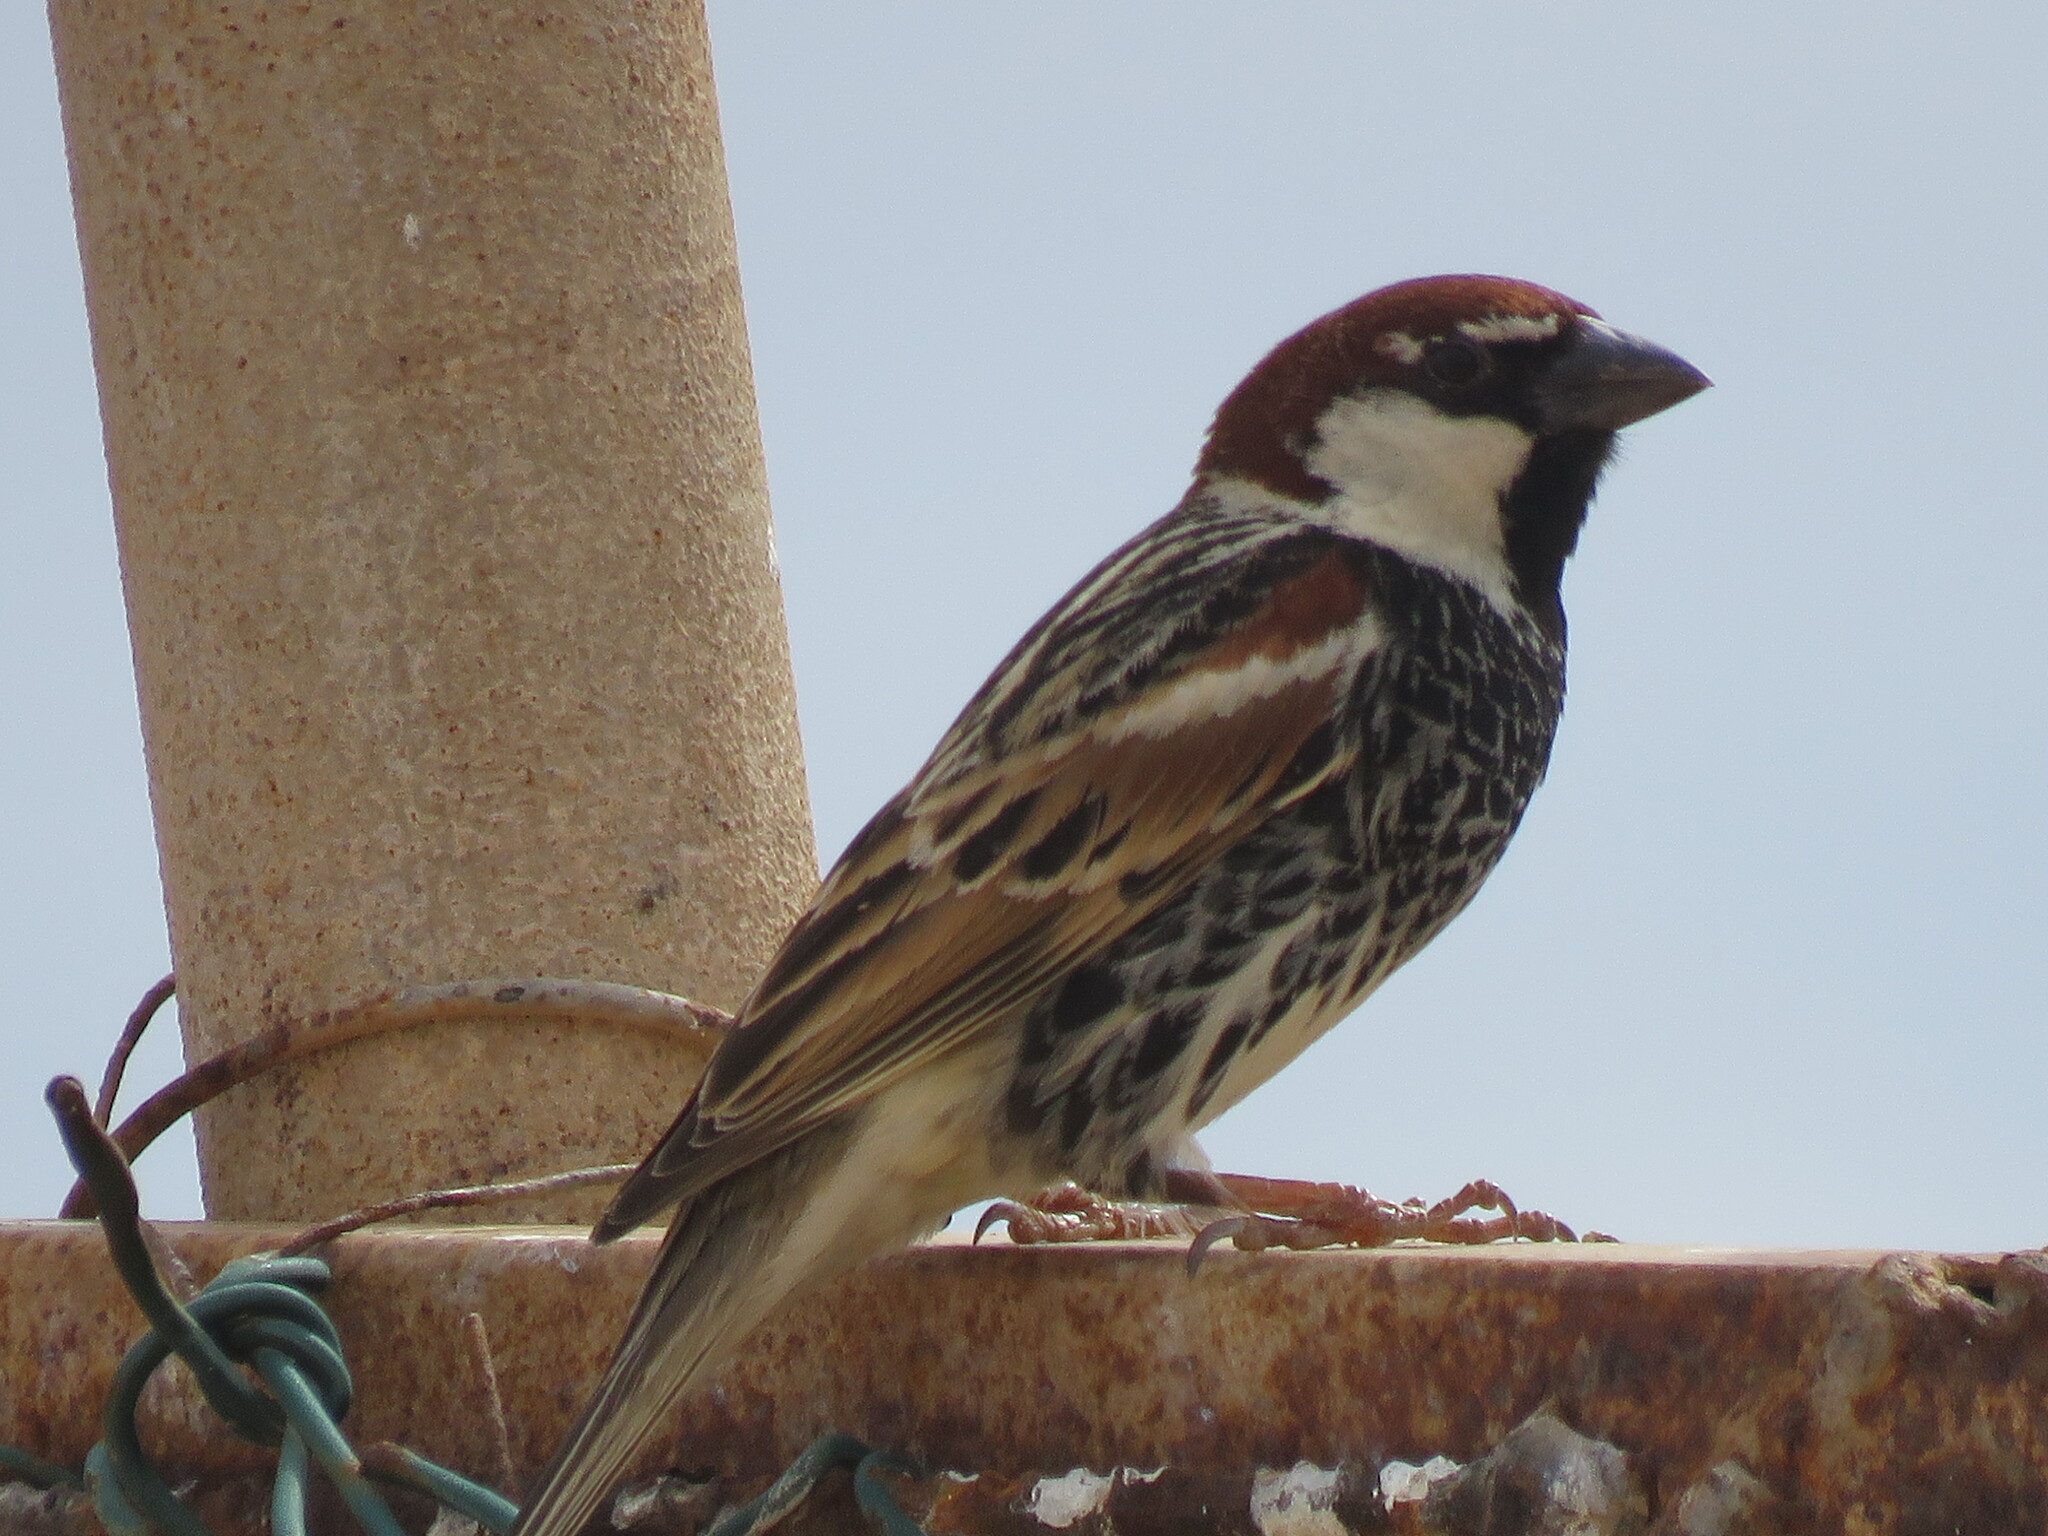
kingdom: Animalia
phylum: Chordata
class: Aves
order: Passeriformes
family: Passeridae
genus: Passer
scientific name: Passer hispaniolensis
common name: Spanish sparrow
